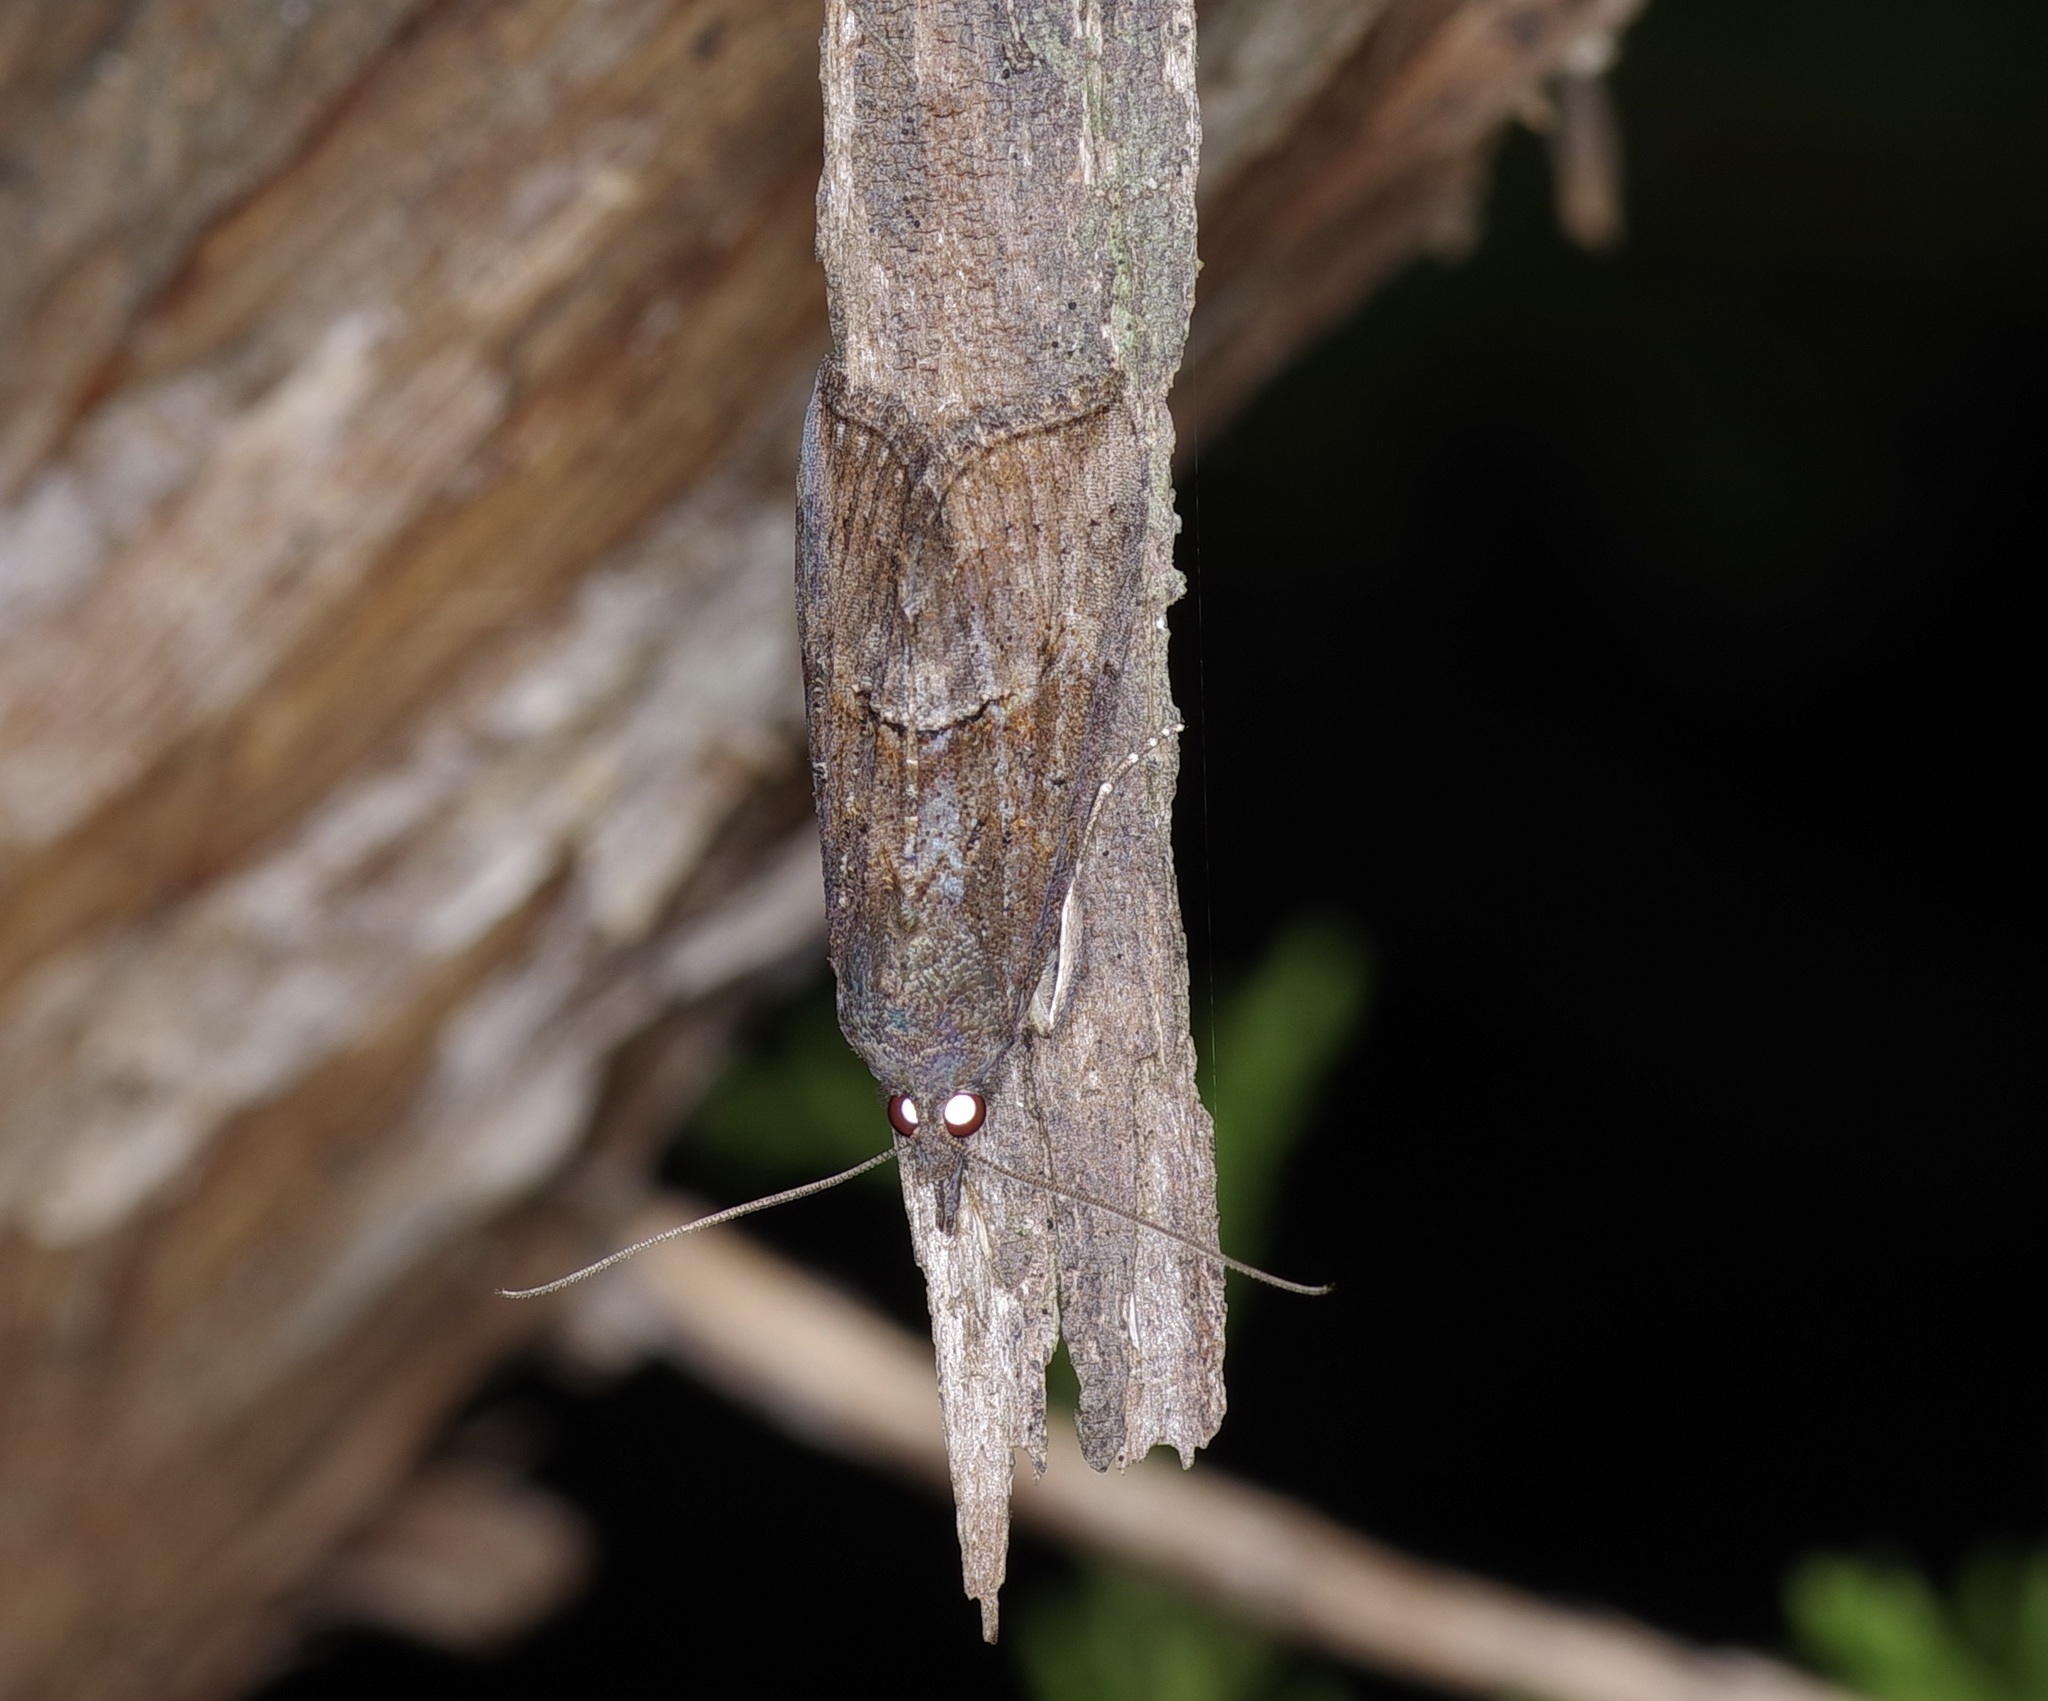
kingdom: Animalia
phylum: Arthropoda
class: Insecta
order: Lepidoptera
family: Erebidae
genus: Hypena
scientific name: Hypena scabra
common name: Green cloverworm
